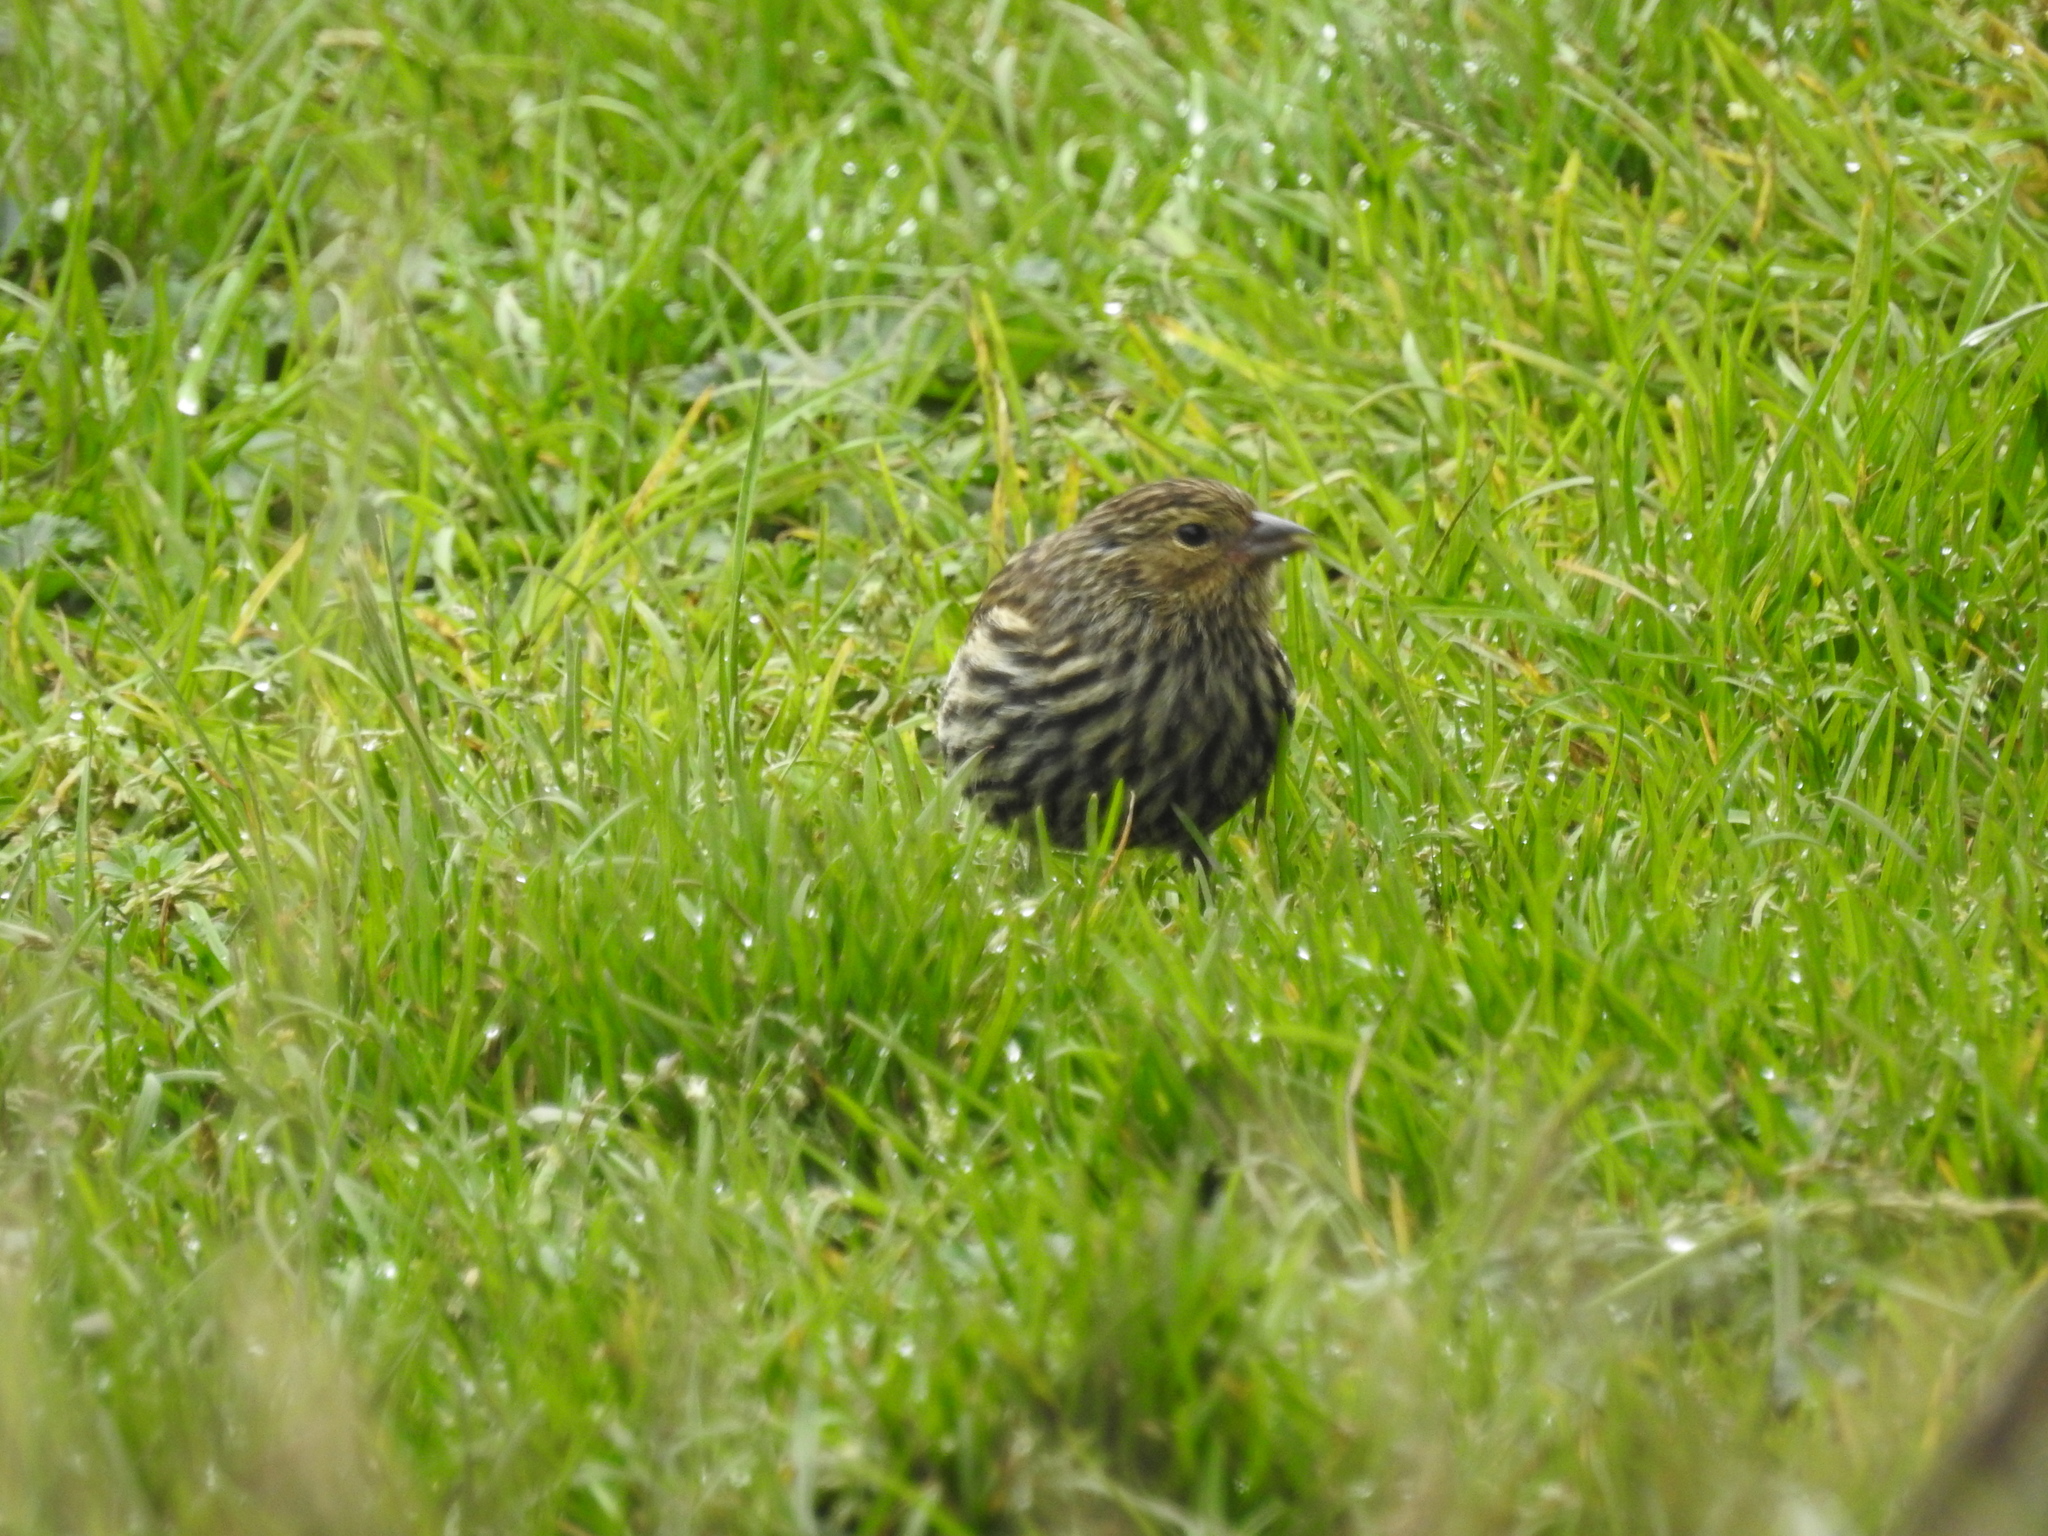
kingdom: Animalia
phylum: Chordata
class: Aves
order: Passeriformes
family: Thraupidae
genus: Geospizopsis
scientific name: Geospizopsis unicolor
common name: Plumbeous sierra-finch
